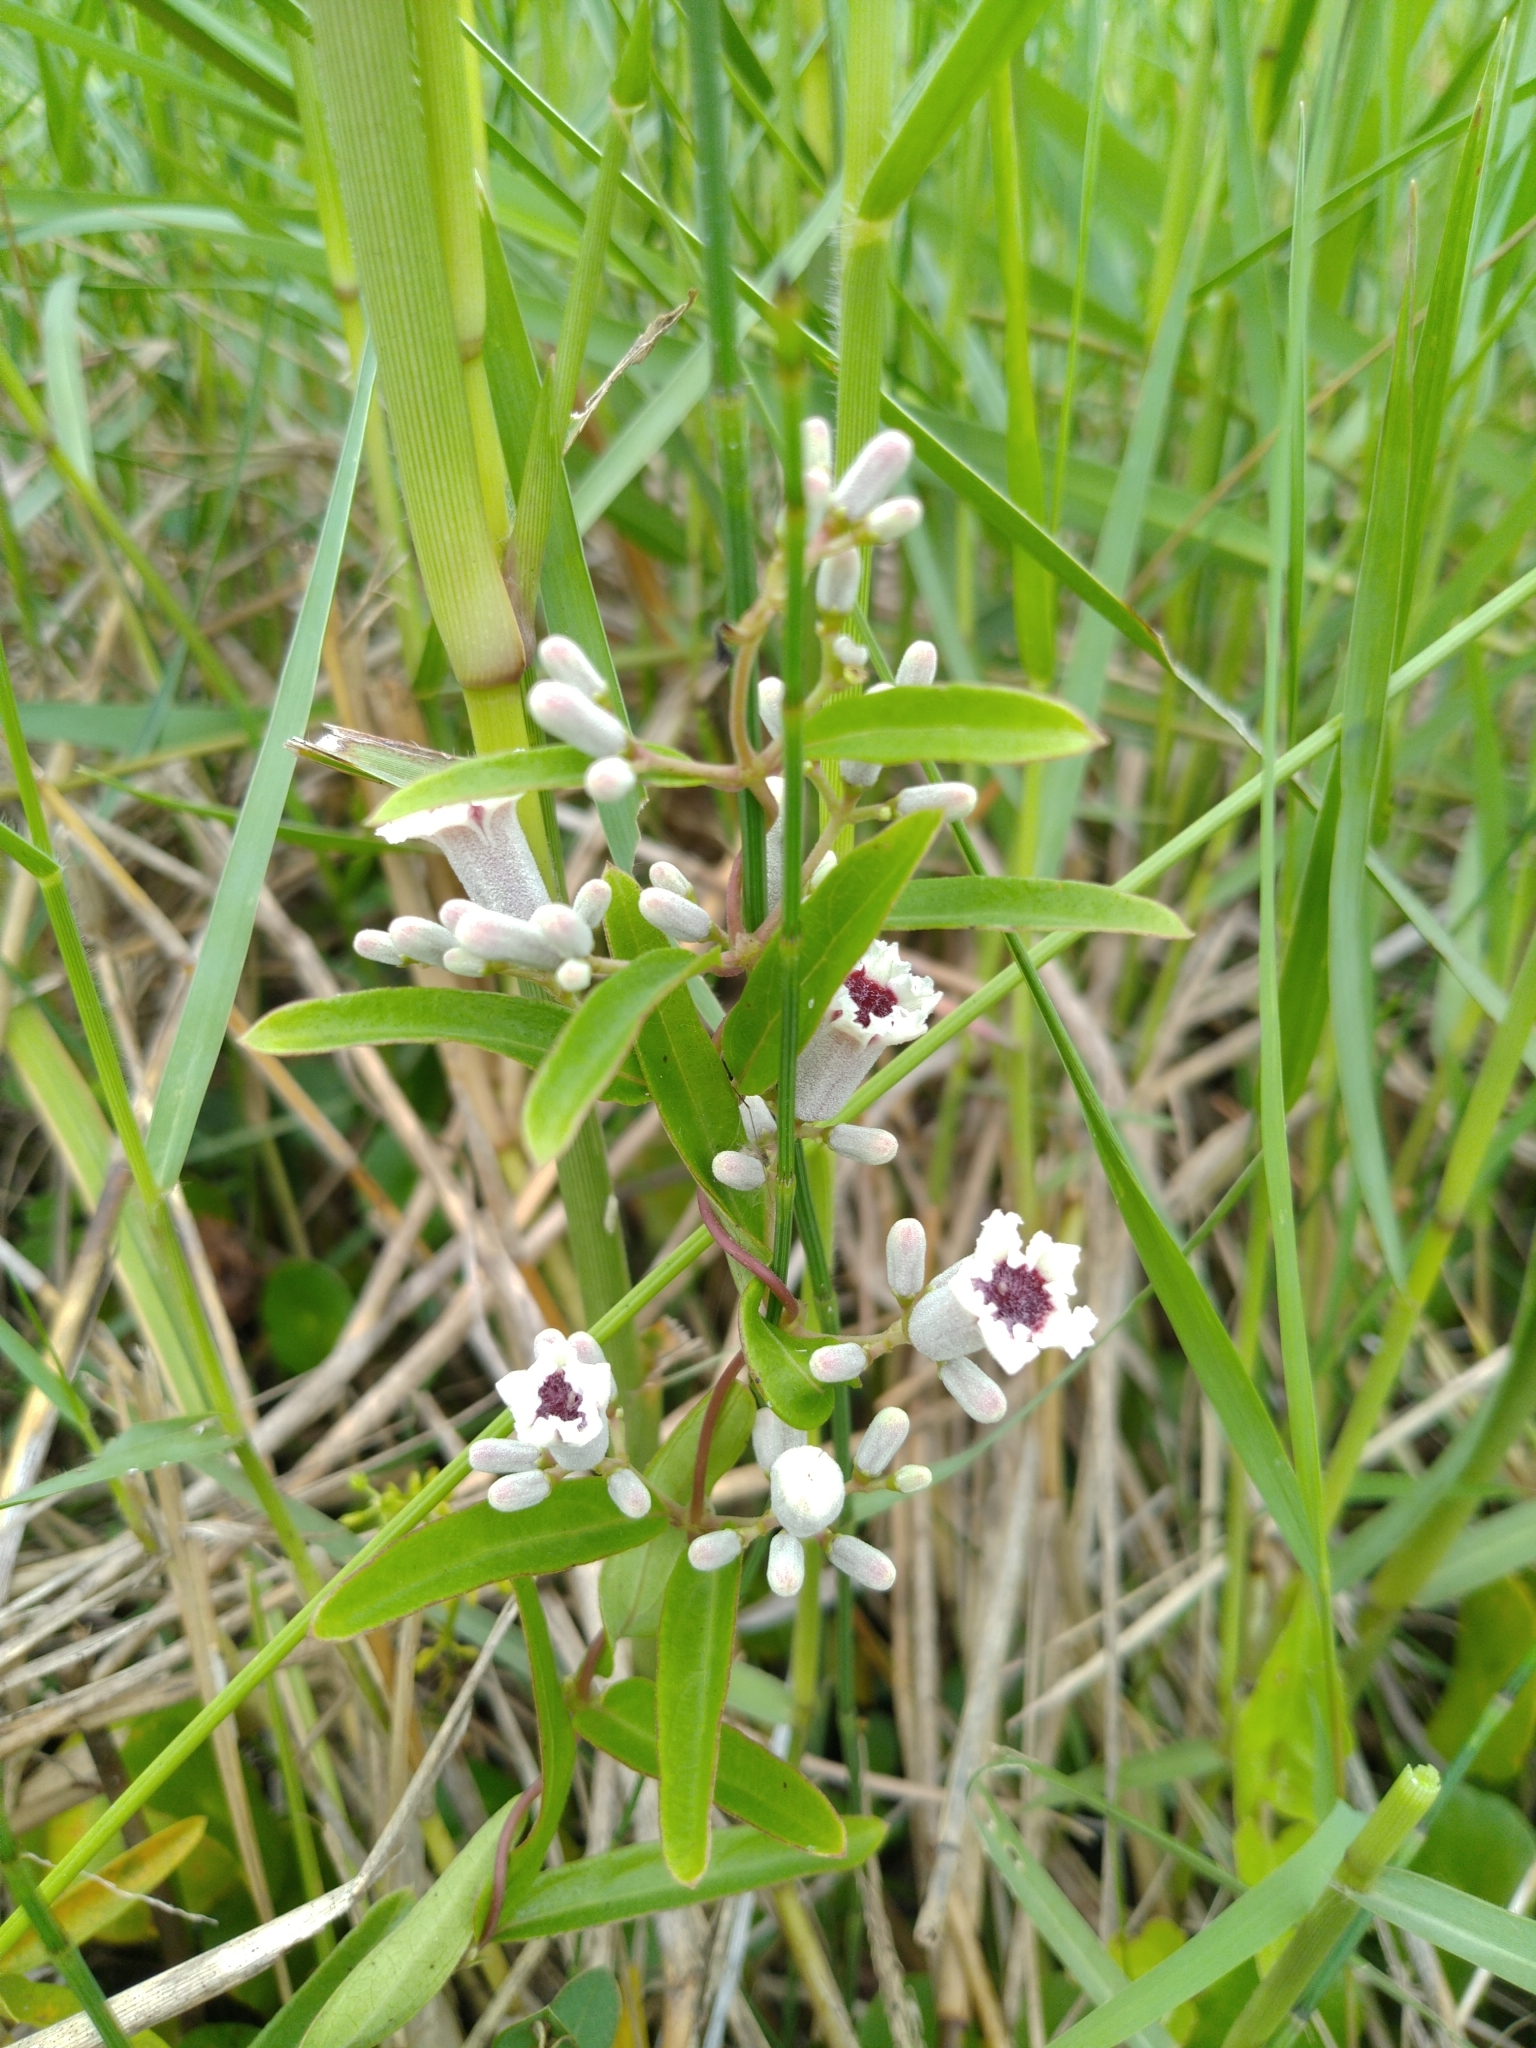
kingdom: Plantae
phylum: Tracheophyta
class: Magnoliopsida
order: Gentianales
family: Rubiaceae
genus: Paederia
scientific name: Paederia foetida
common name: Stinkvine
